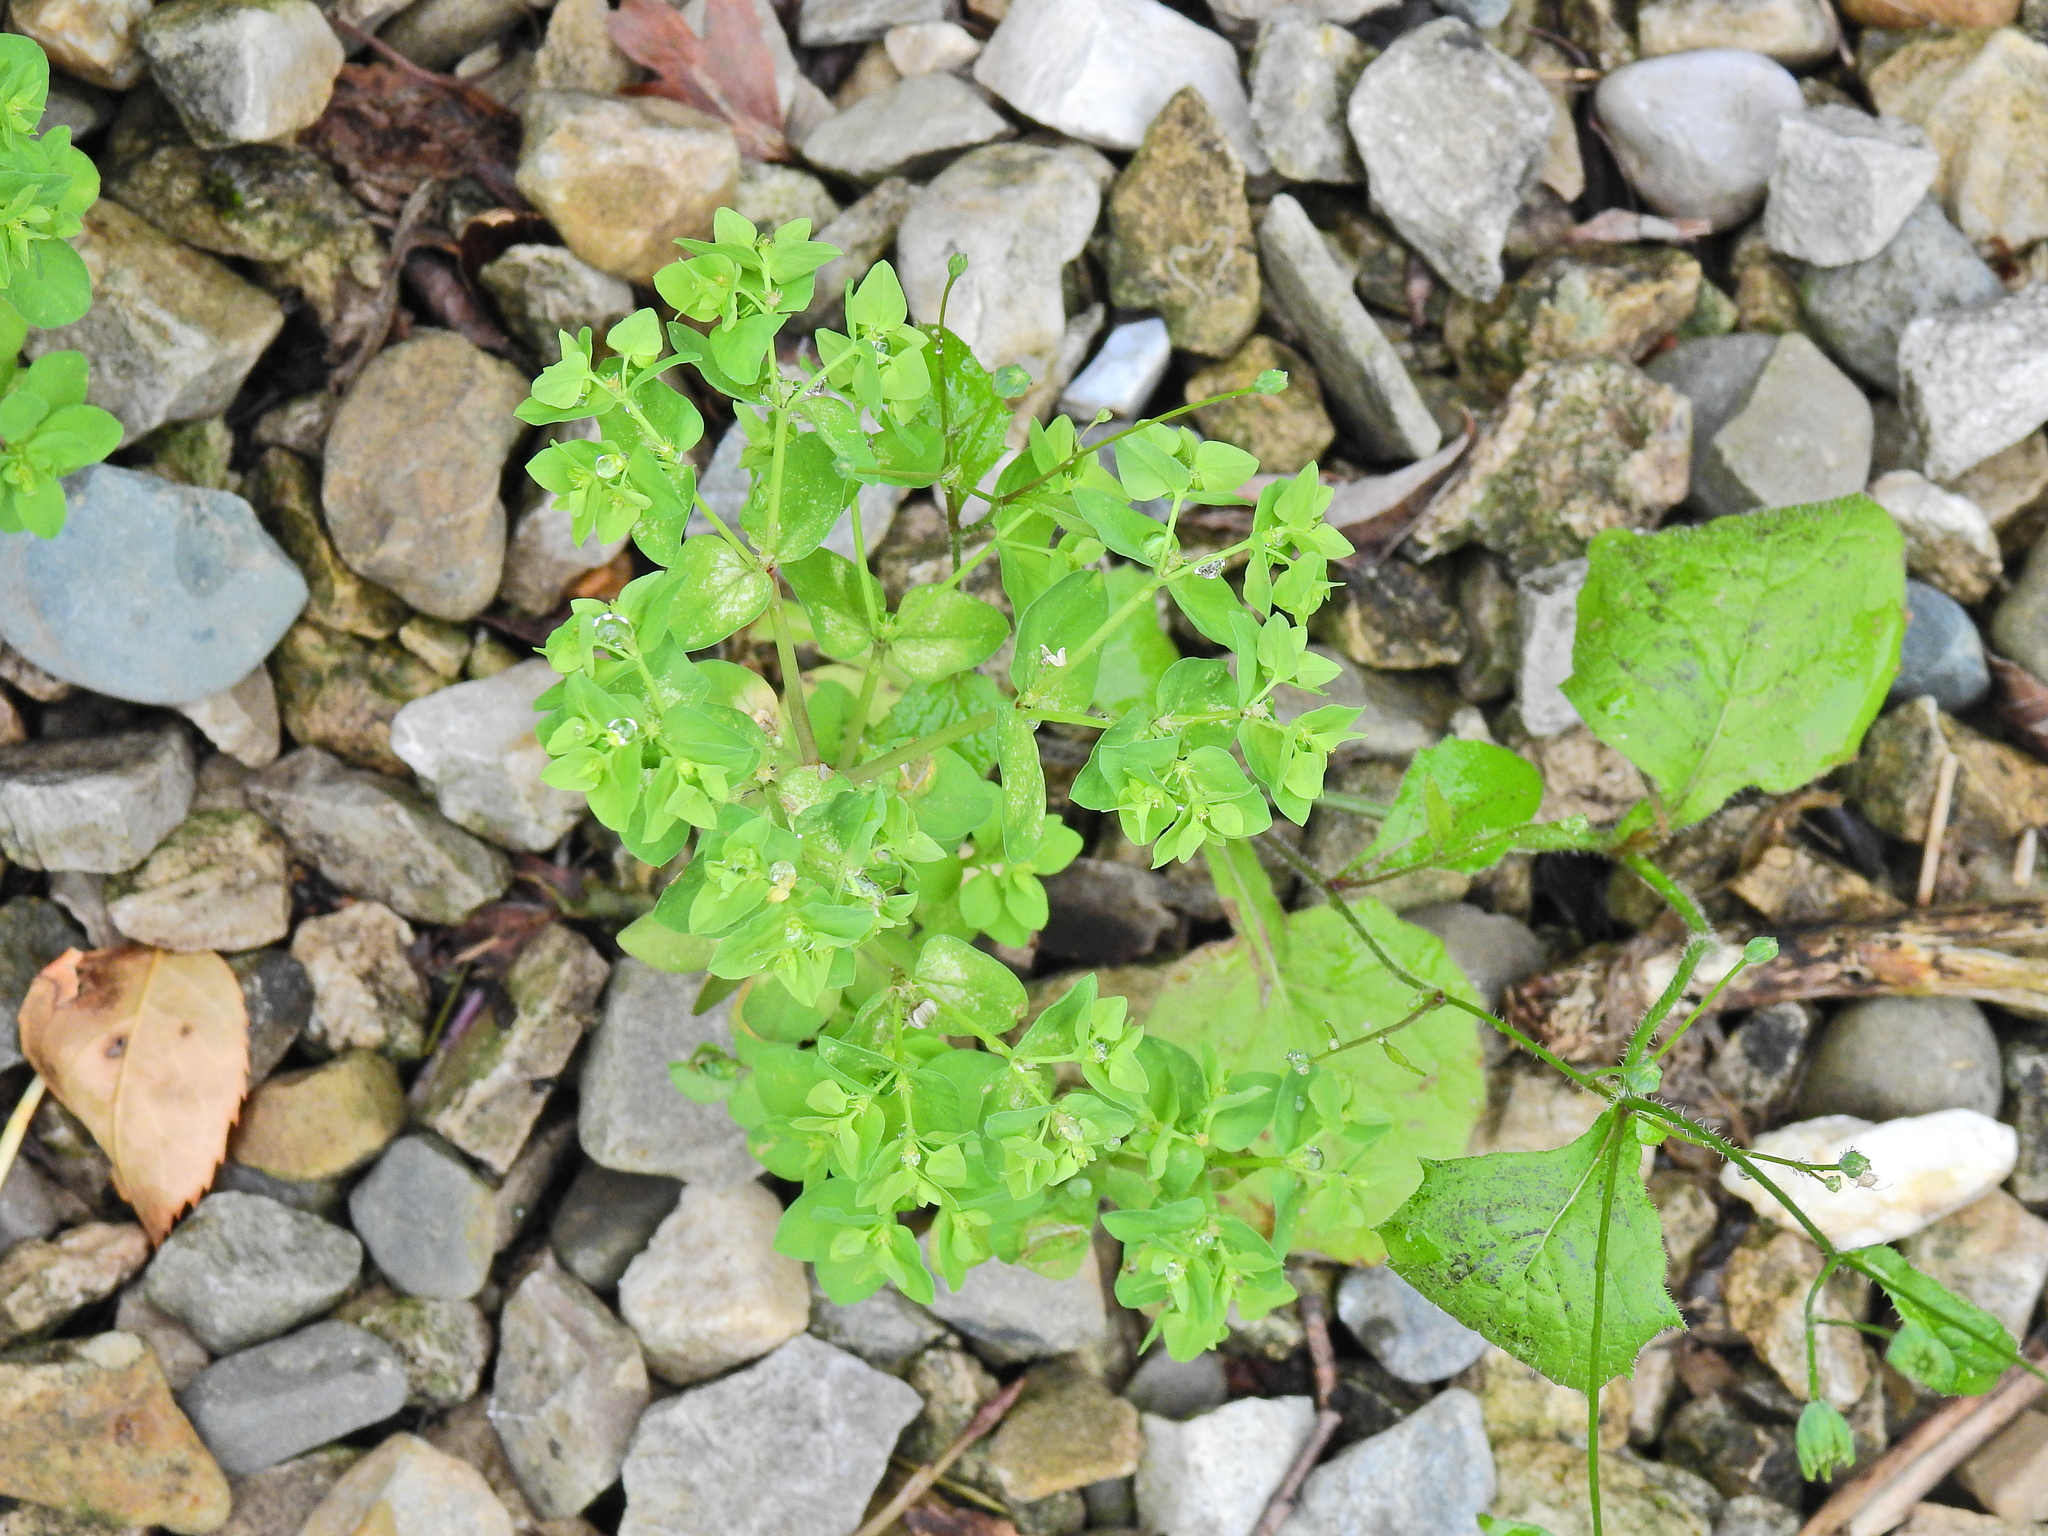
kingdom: Plantae
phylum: Tracheophyta
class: Magnoliopsida
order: Malpighiales
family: Euphorbiaceae
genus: Euphorbia
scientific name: Euphorbia peplus
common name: Petty spurge
